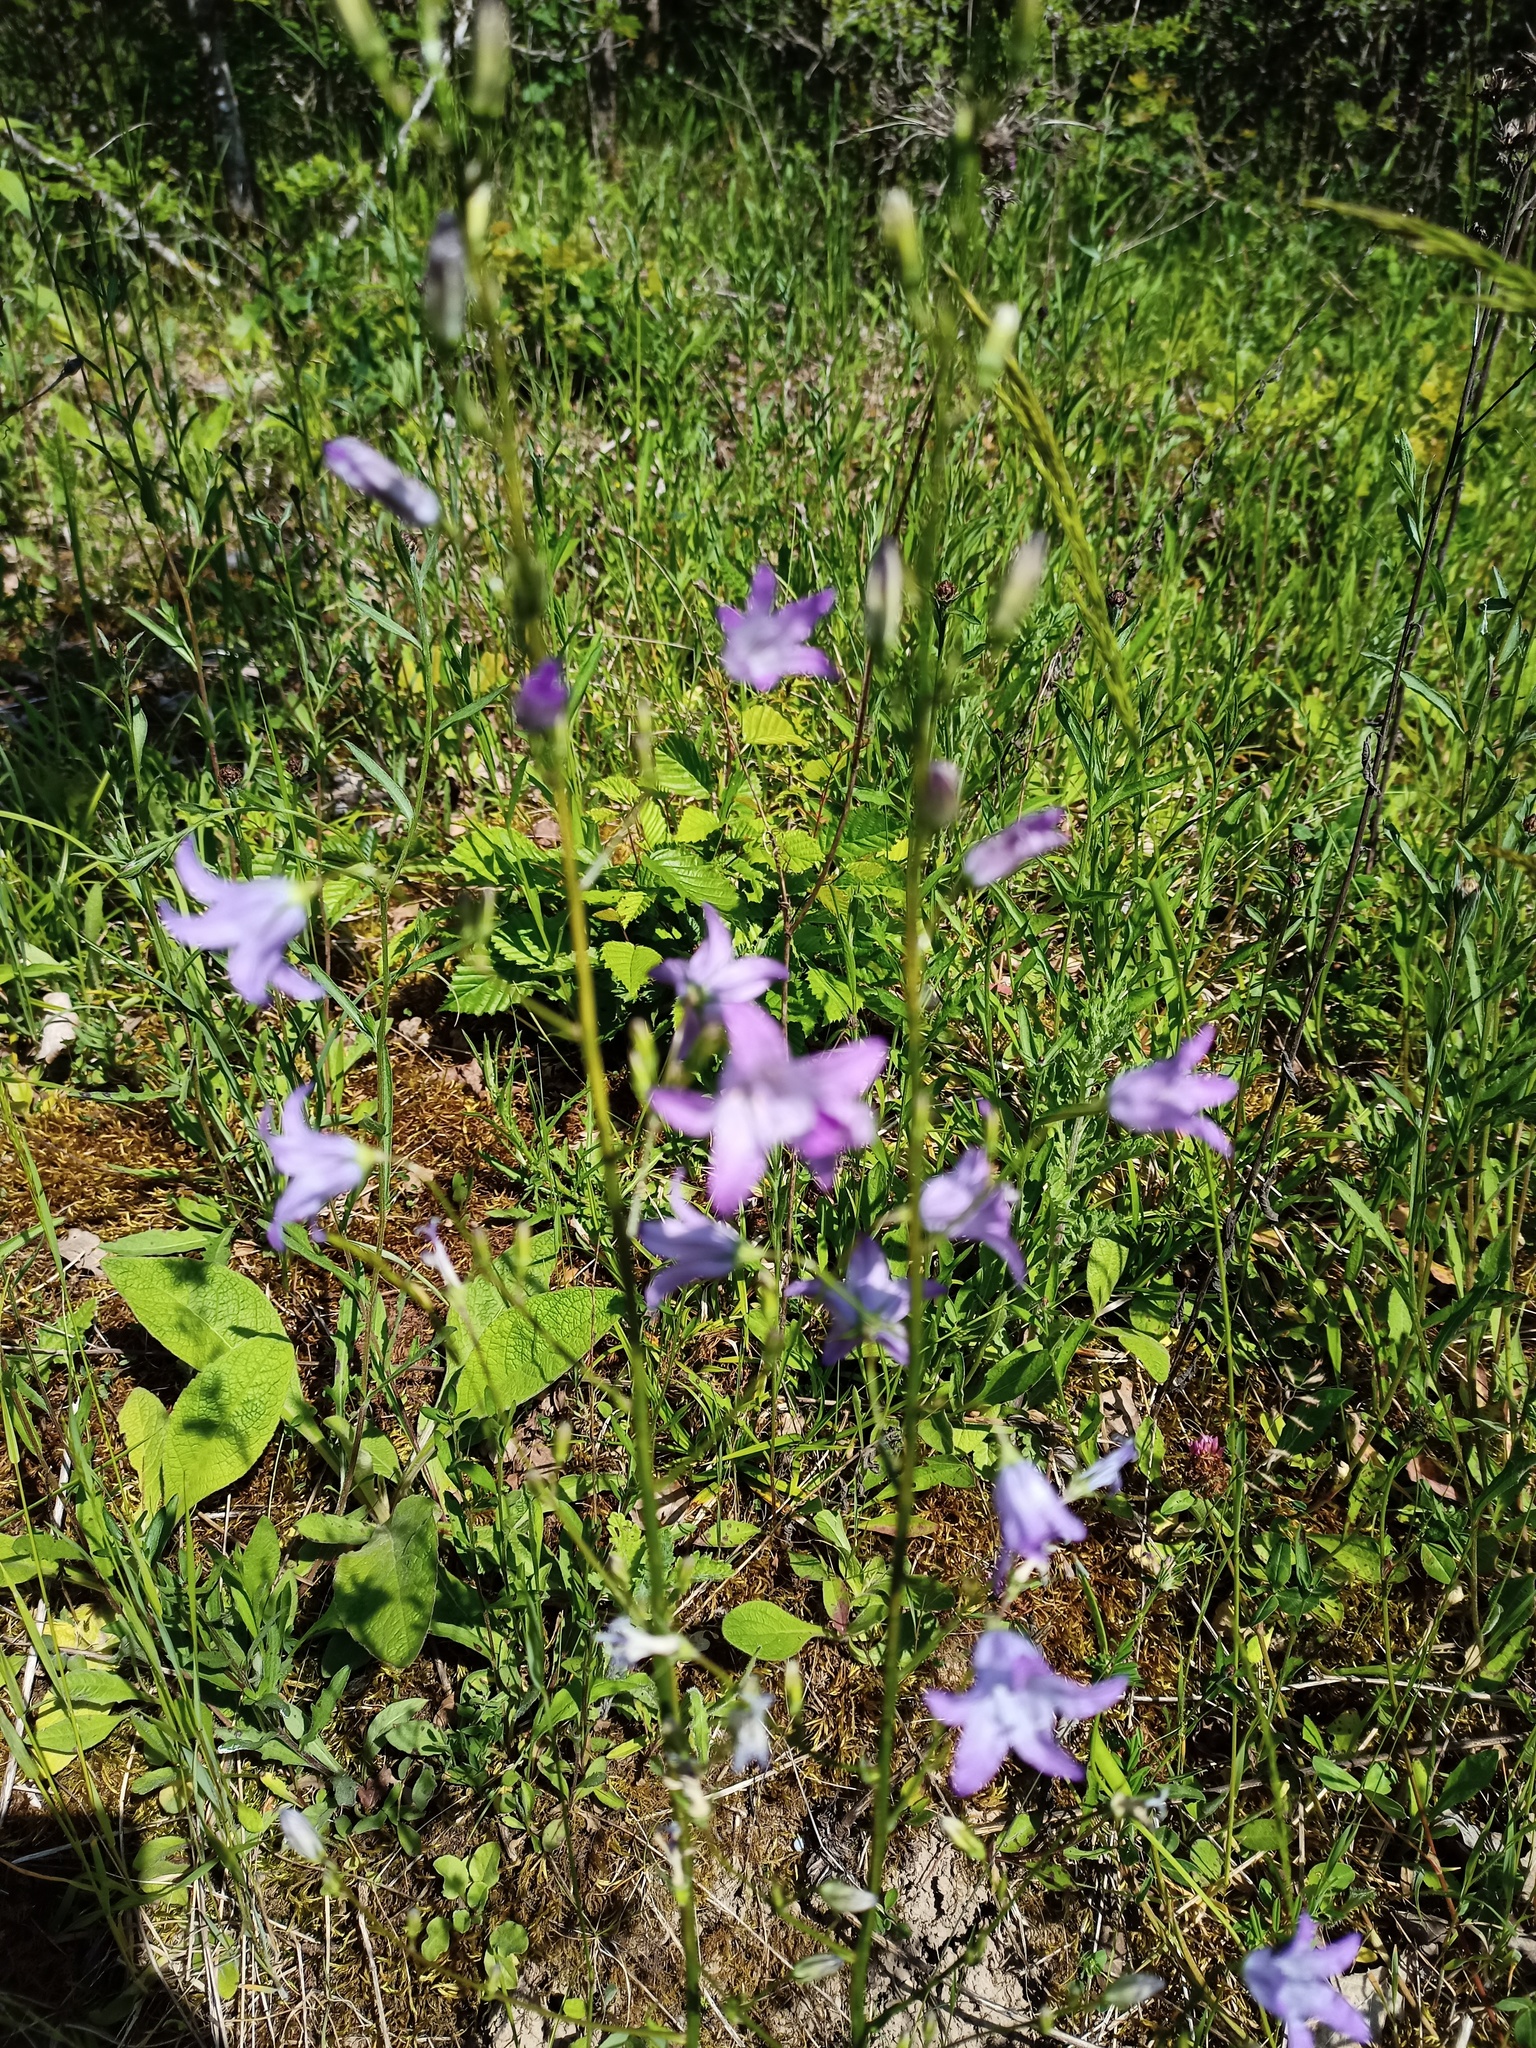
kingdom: Plantae
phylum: Tracheophyta
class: Magnoliopsida
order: Asterales
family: Campanulaceae
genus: Campanula
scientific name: Campanula rapunculus
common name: Rampion bellflower
